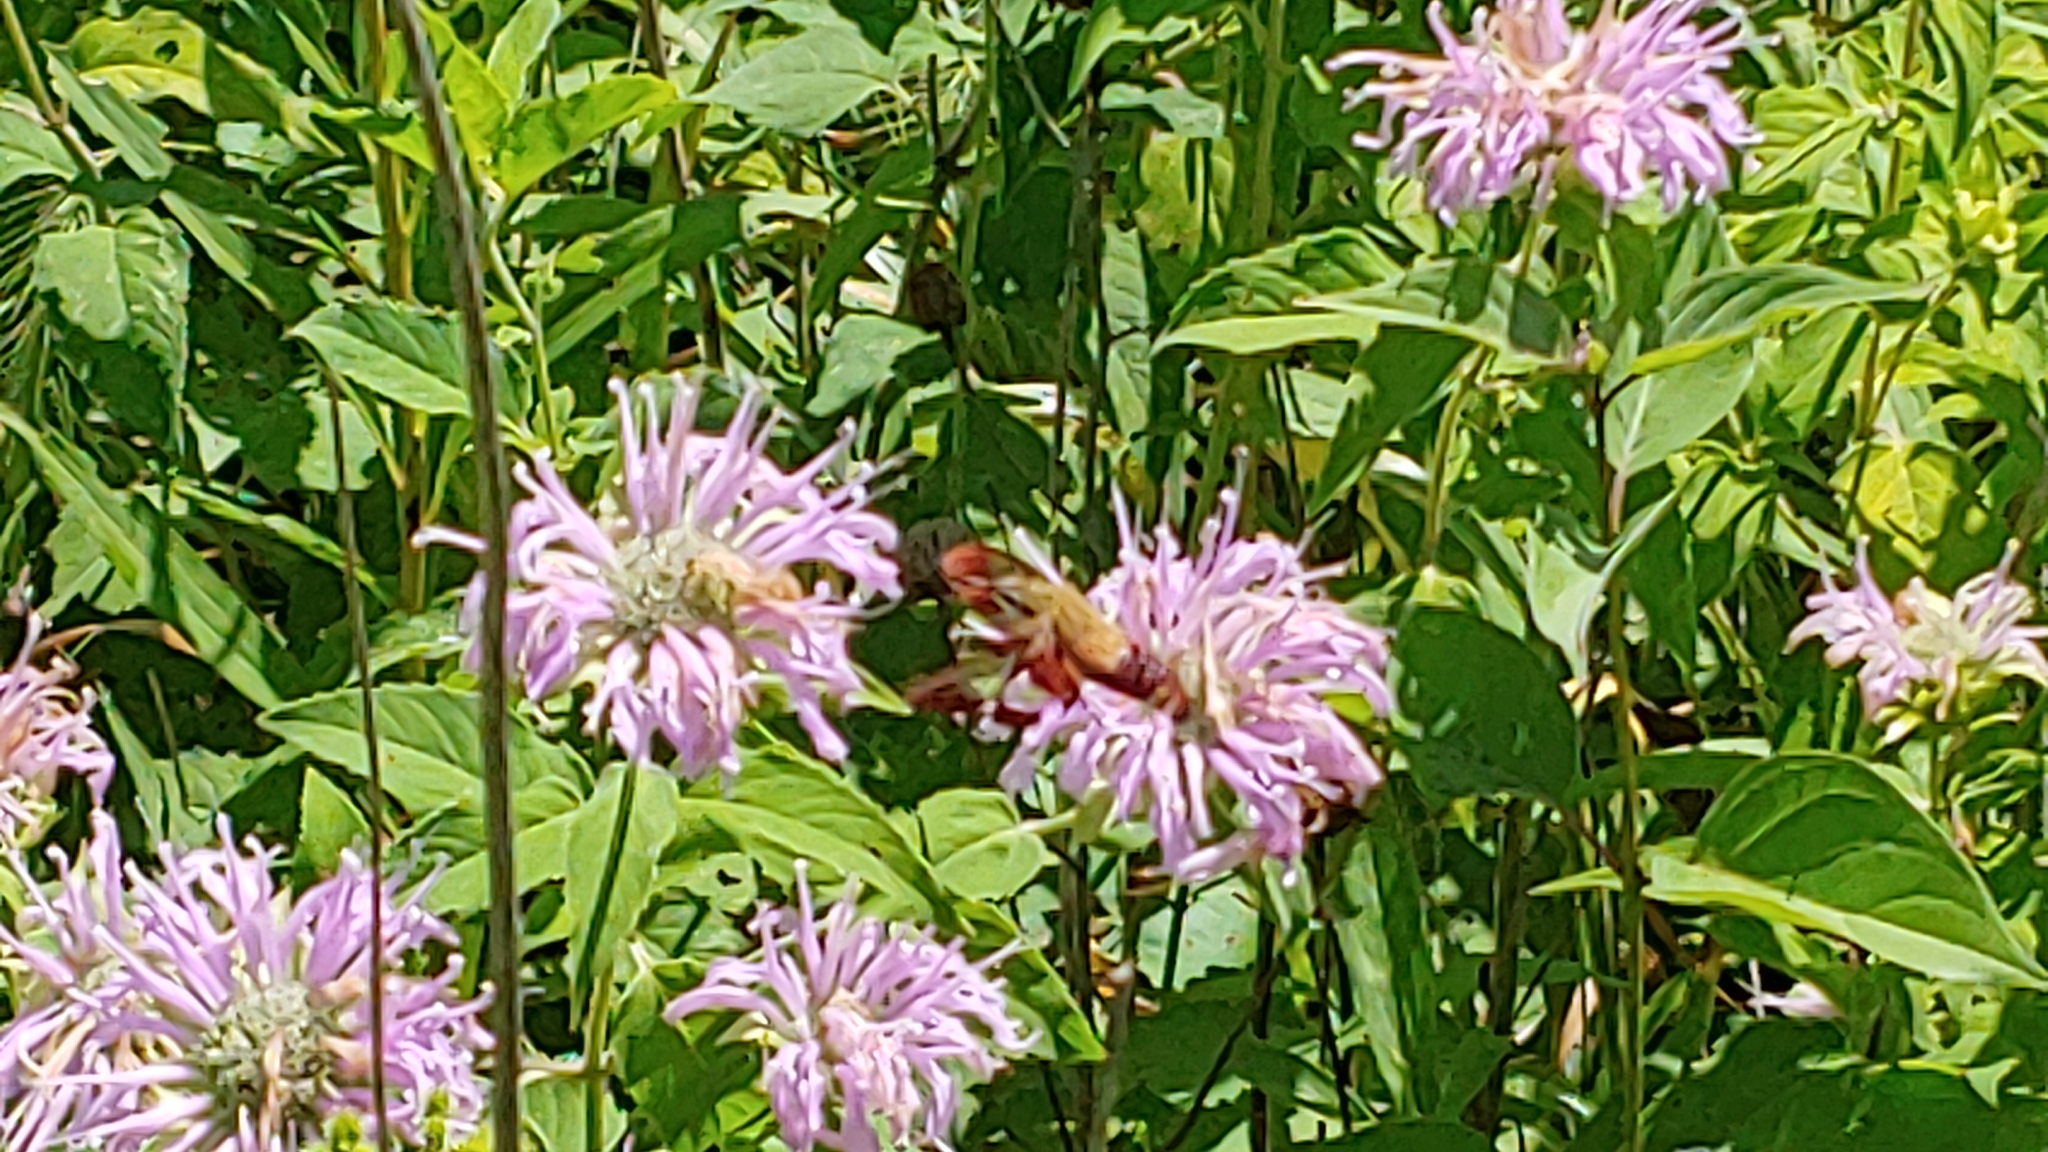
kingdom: Animalia
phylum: Arthropoda
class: Insecta
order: Lepidoptera
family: Sphingidae
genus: Hemaris
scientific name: Hemaris thysbe
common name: Common clear-wing
